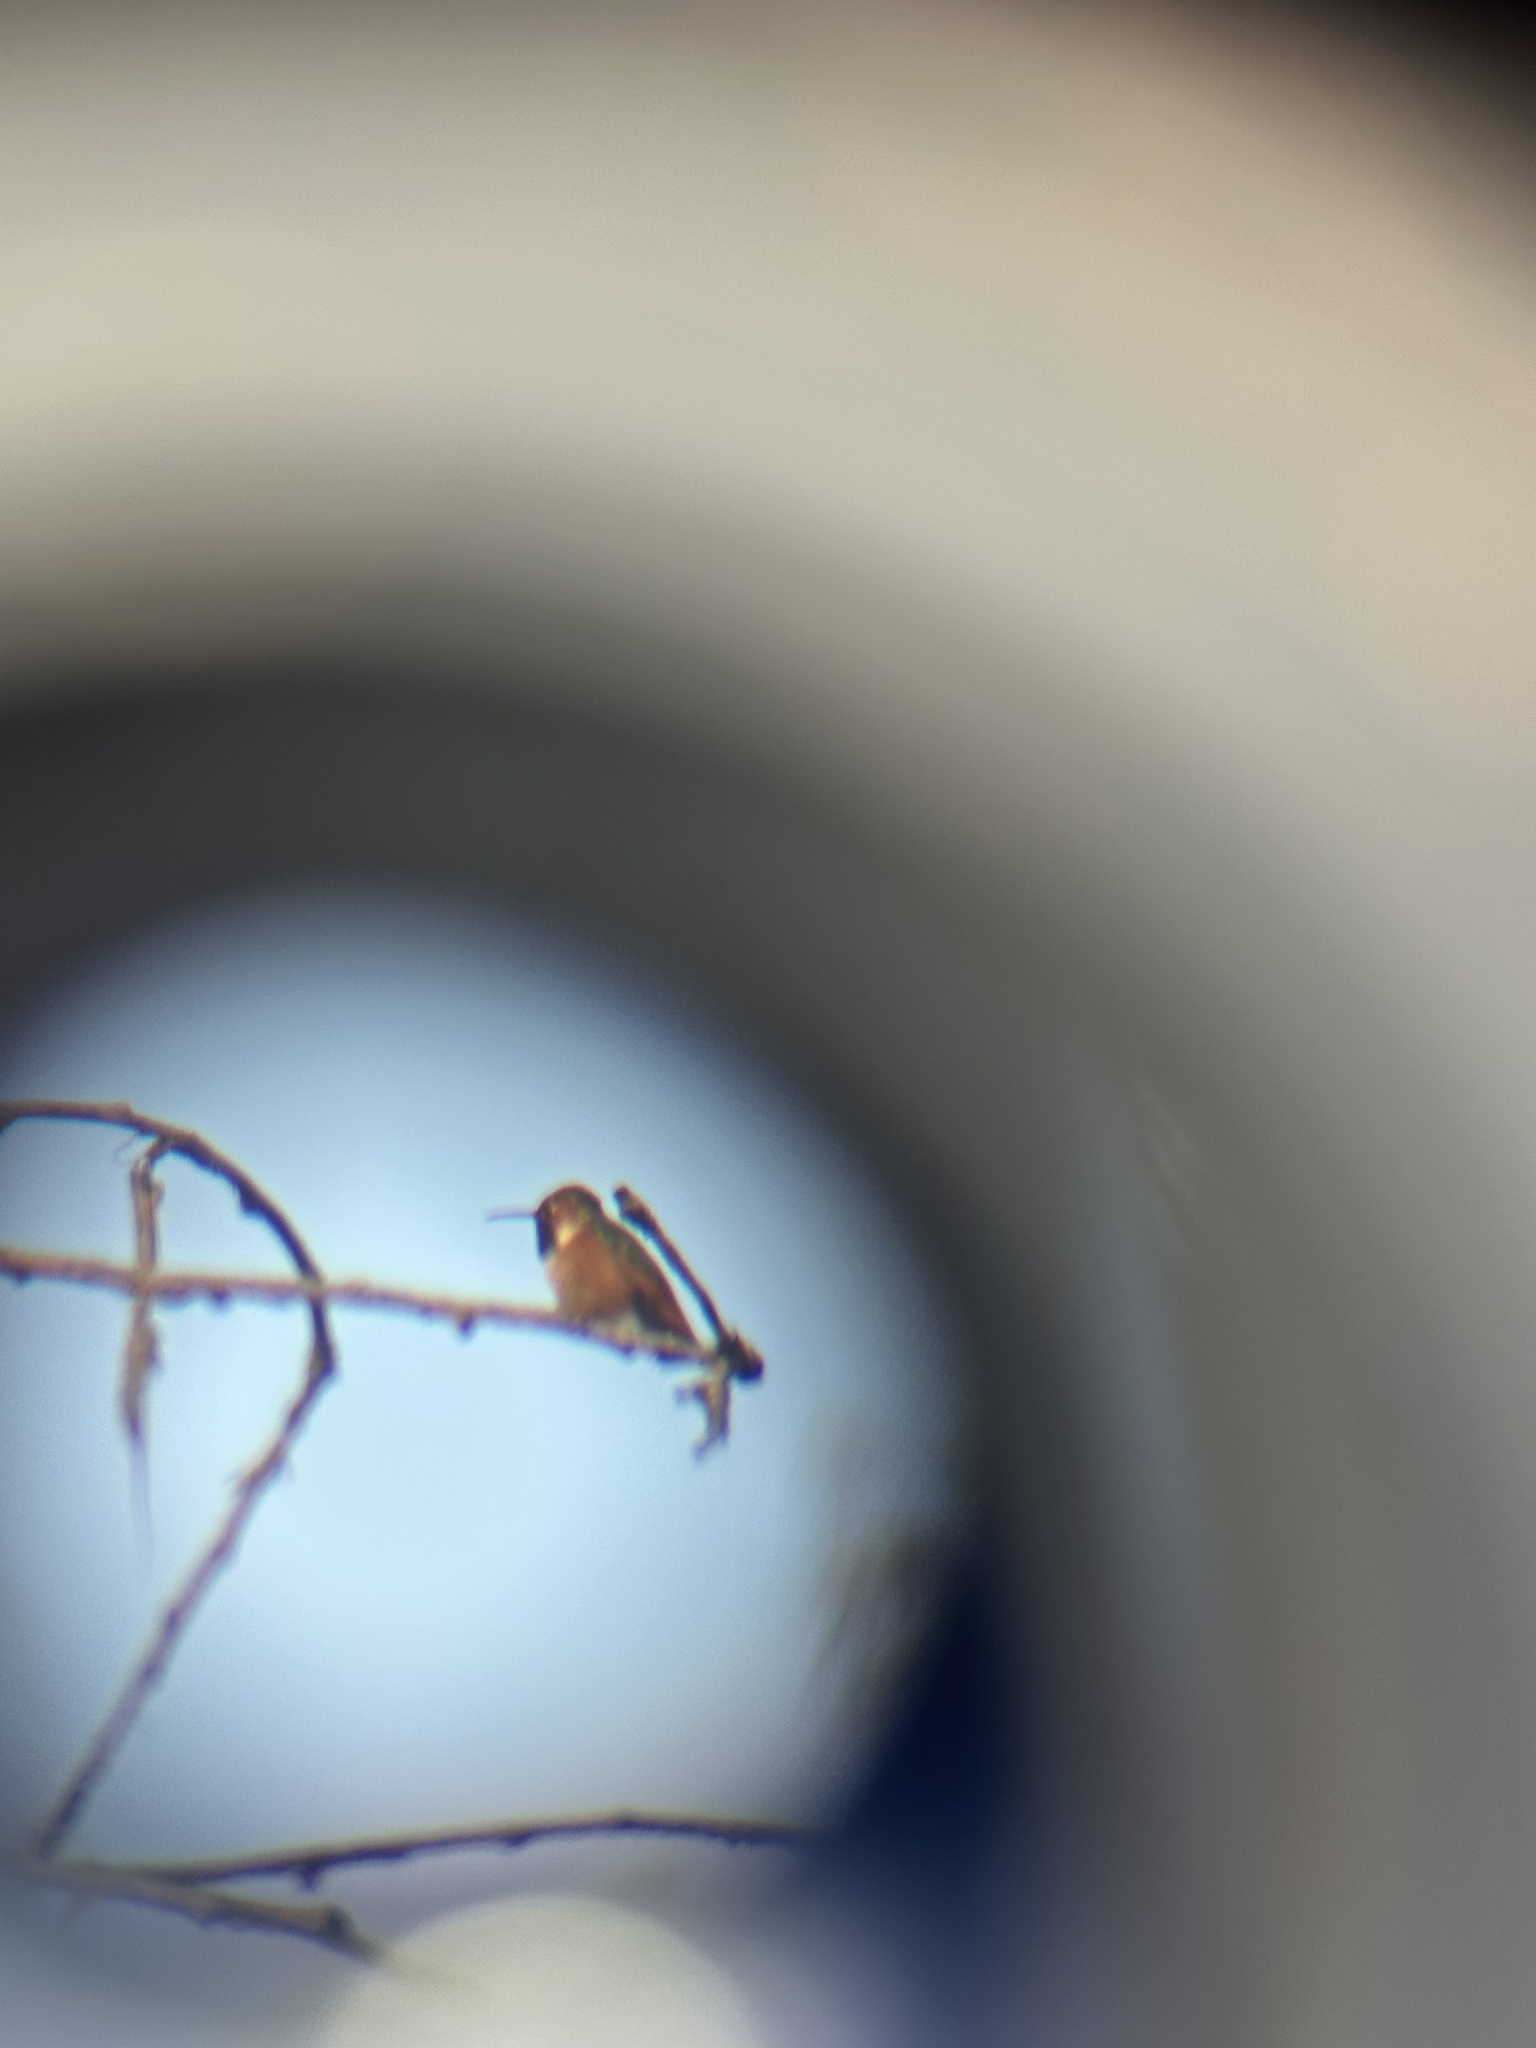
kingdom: Animalia
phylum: Chordata
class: Aves
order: Apodiformes
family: Trochilidae
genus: Selasphorus
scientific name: Selasphorus sasin
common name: Allen's hummingbird
